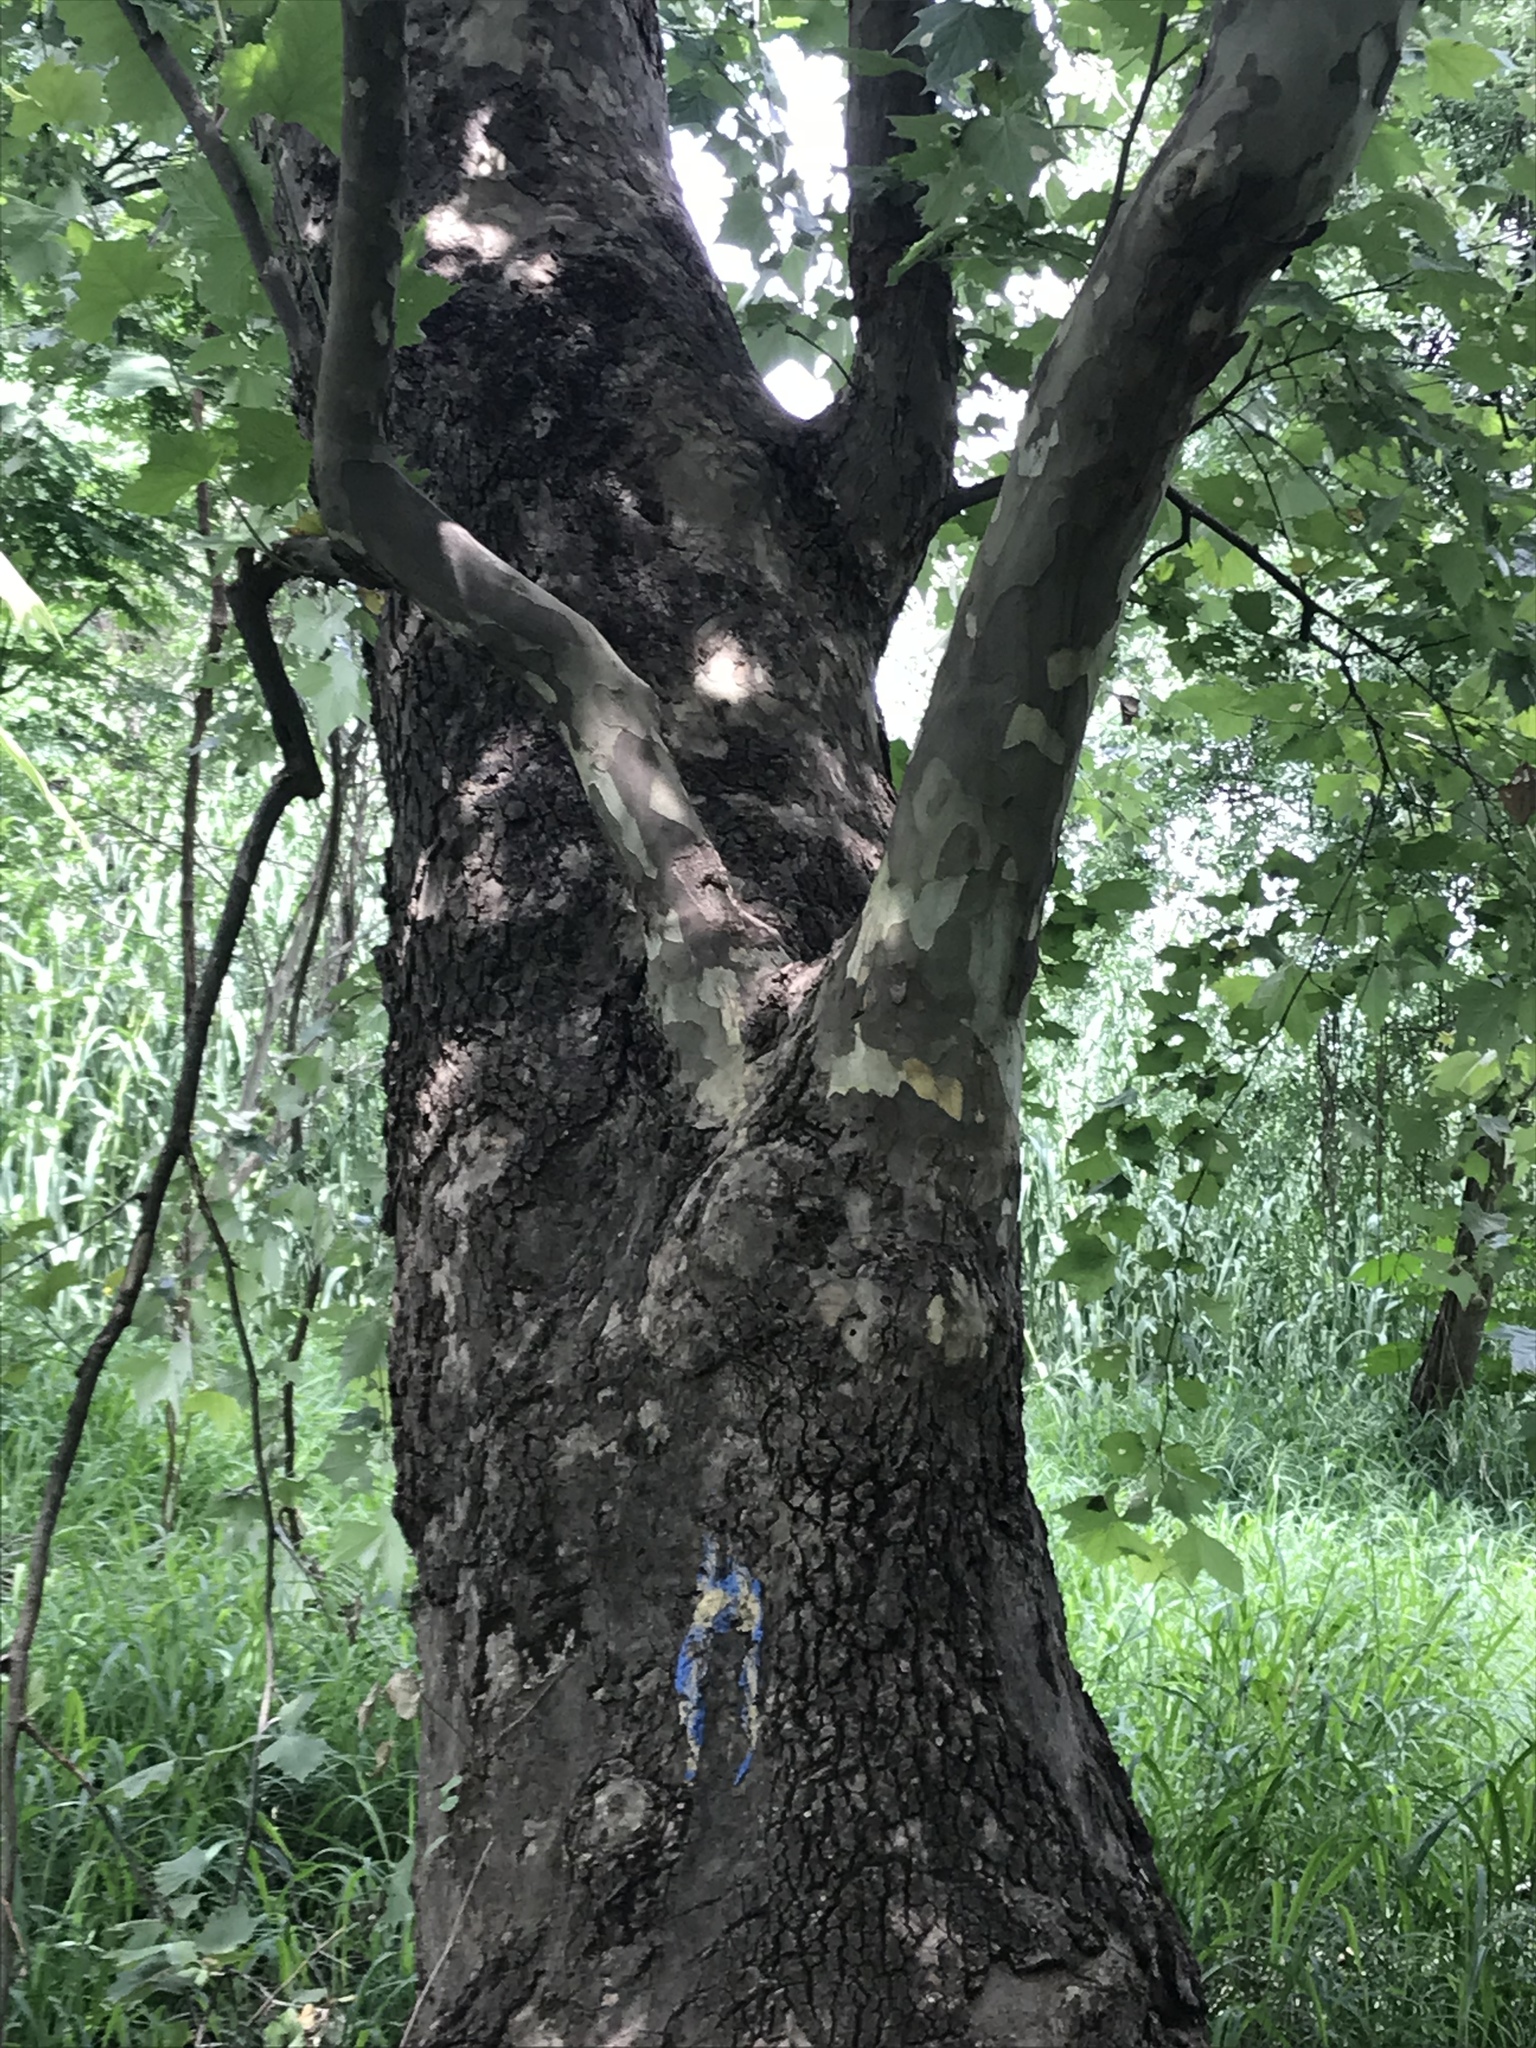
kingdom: Plantae
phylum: Tracheophyta
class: Magnoliopsida
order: Proteales
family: Platanaceae
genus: Platanus
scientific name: Platanus rzedowskii
